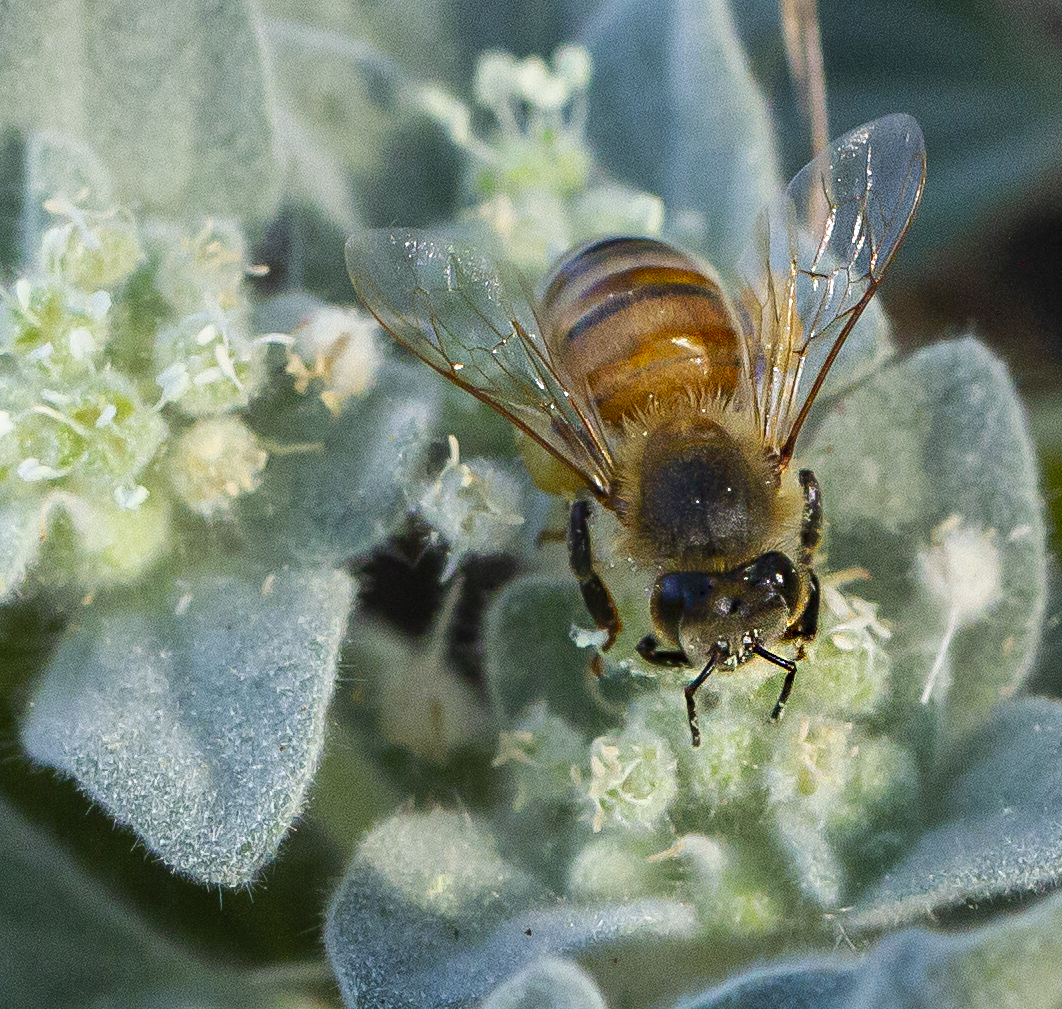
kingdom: Animalia
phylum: Arthropoda
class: Insecta
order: Hymenoptera
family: Apidae
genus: Apis
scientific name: Apis mellifera
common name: Honey bee
